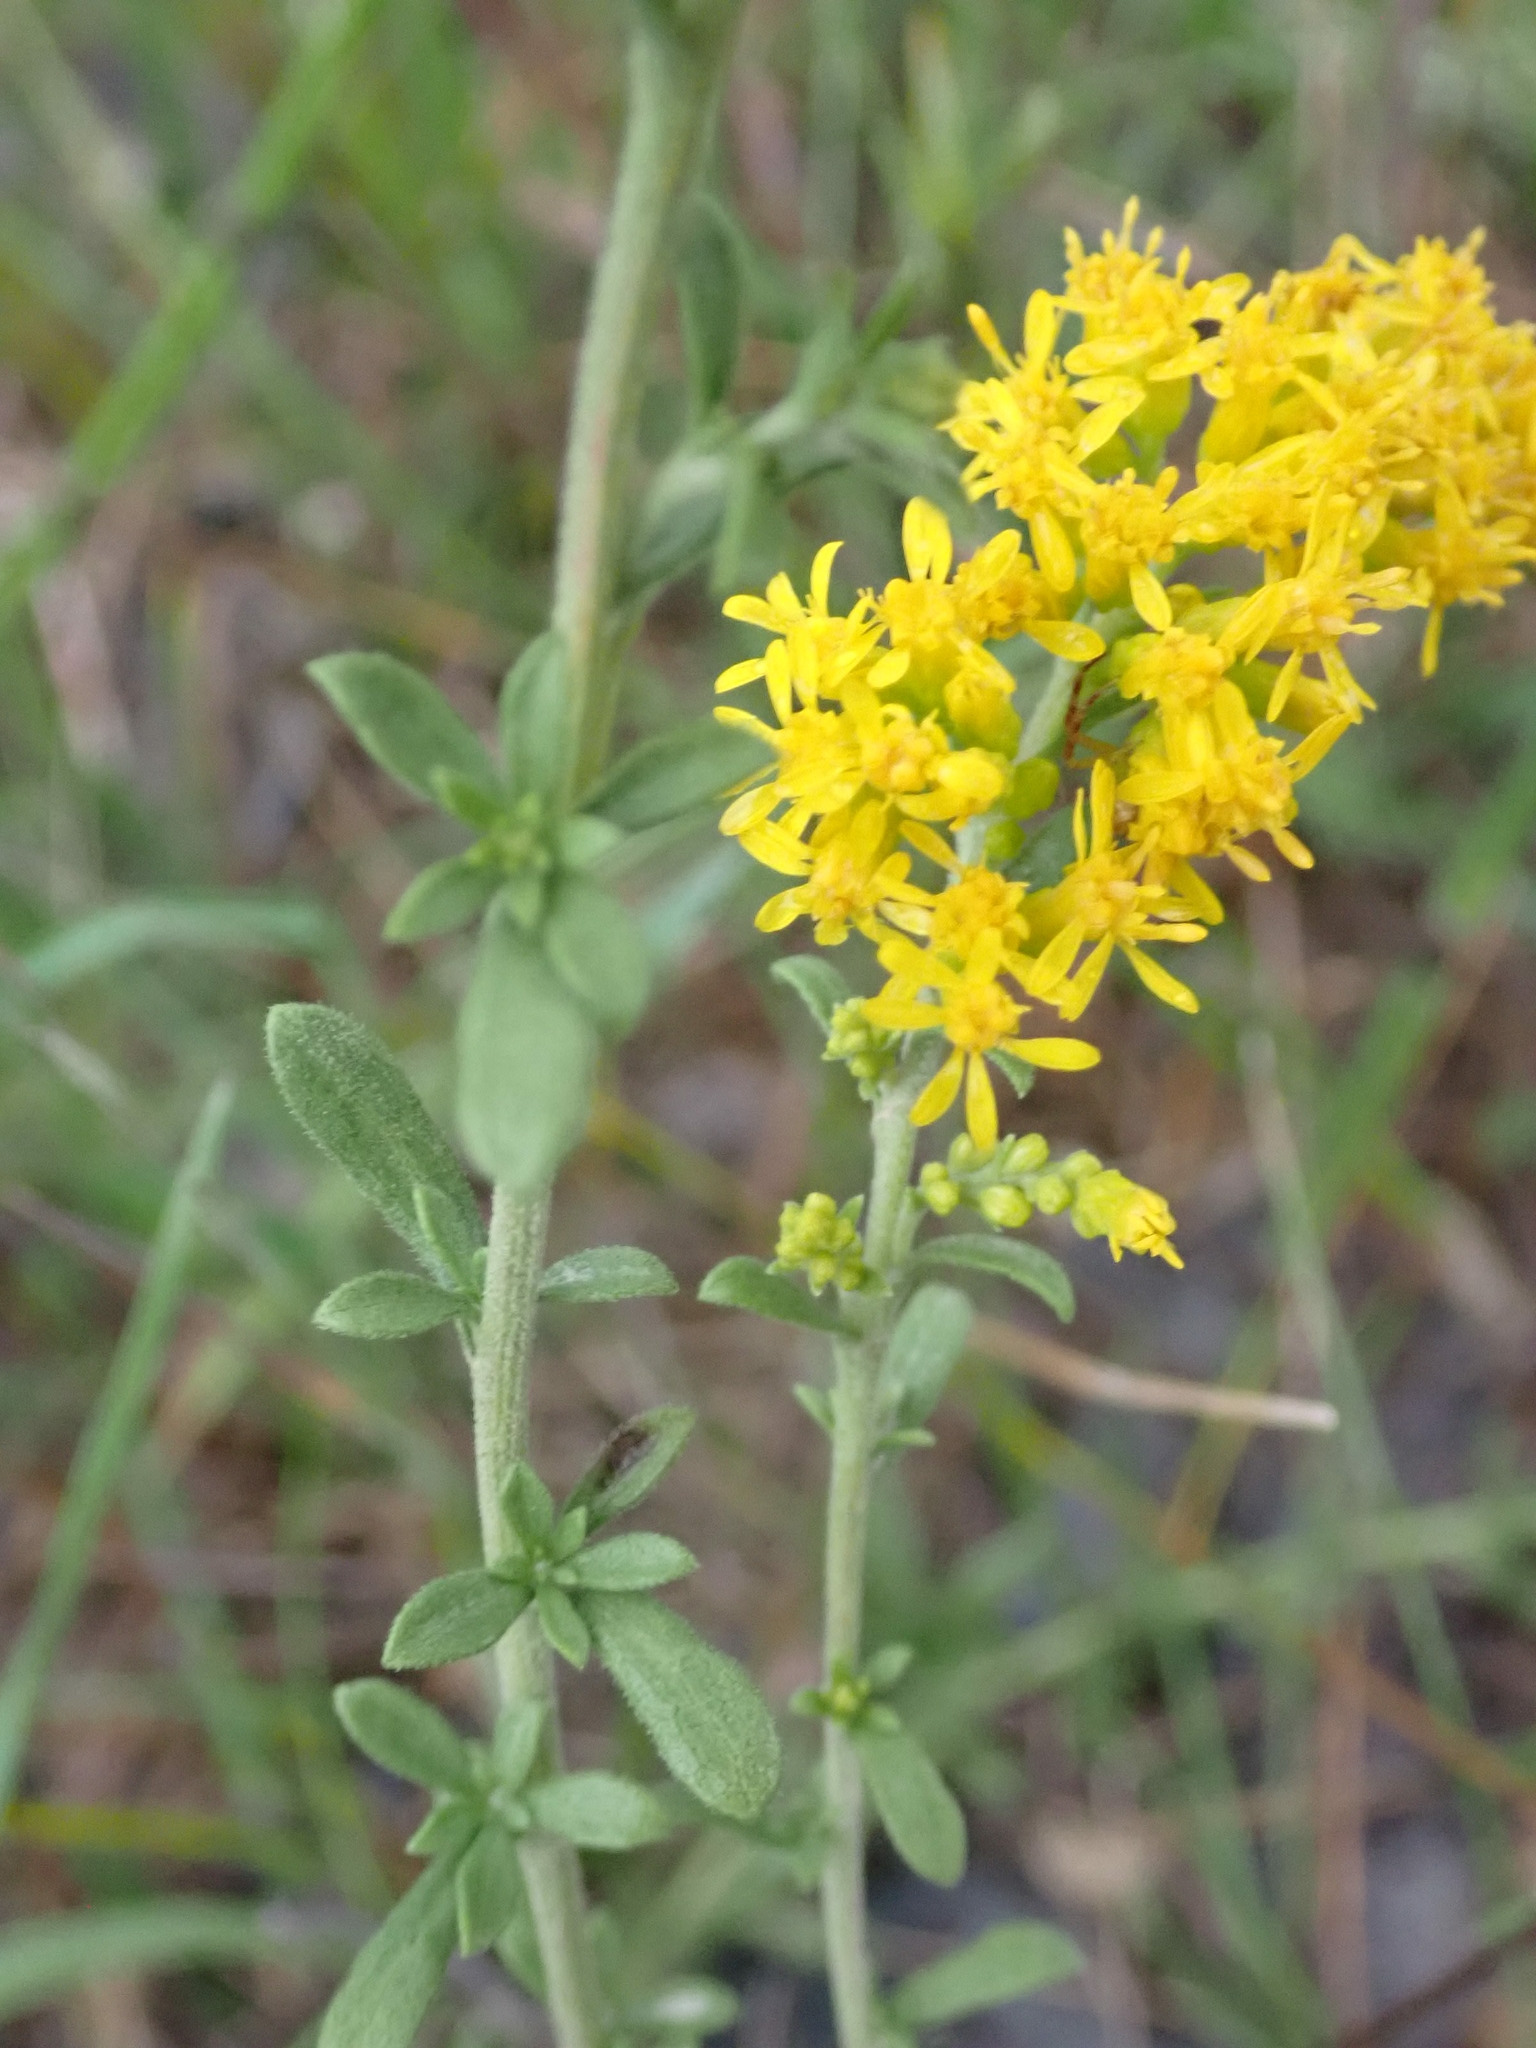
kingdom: Plantae
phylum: Tracheophyta
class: Magnoliopsida
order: Asterales
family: Asteraceae
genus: Solidago
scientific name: Solidago nemoralis
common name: Grey goldenrod
